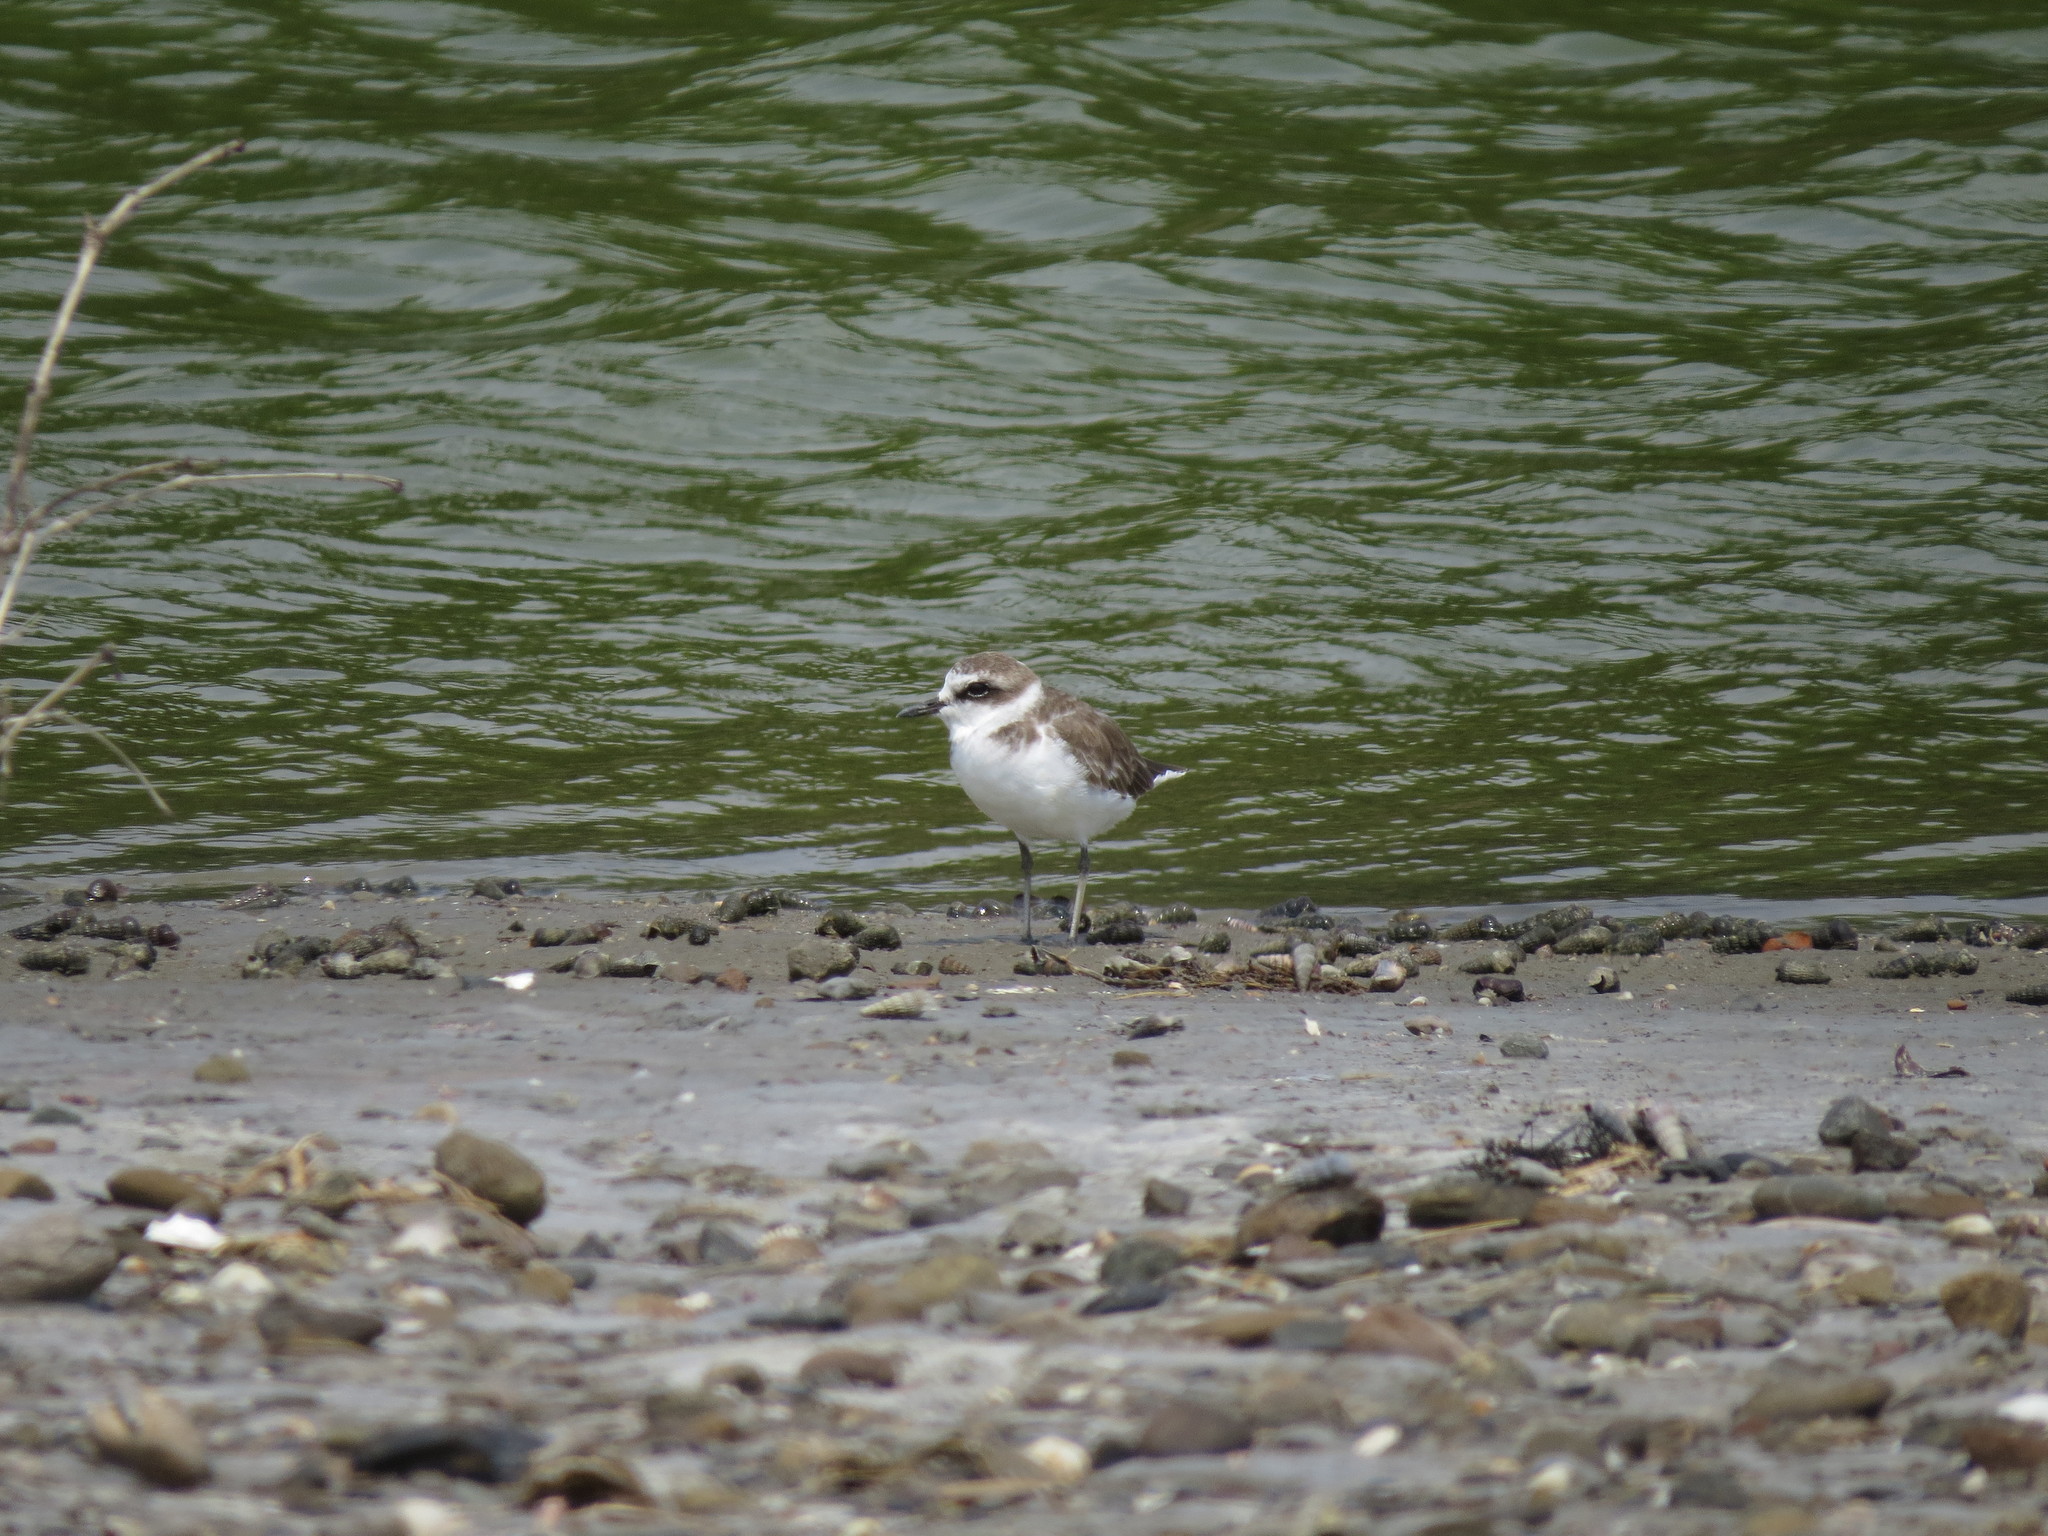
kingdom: Animalia
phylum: Chordata
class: Aves
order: Charadriiformes
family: Charadriidae
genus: Charadrius
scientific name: Charadrius alexandrinus
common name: Kentish plover
